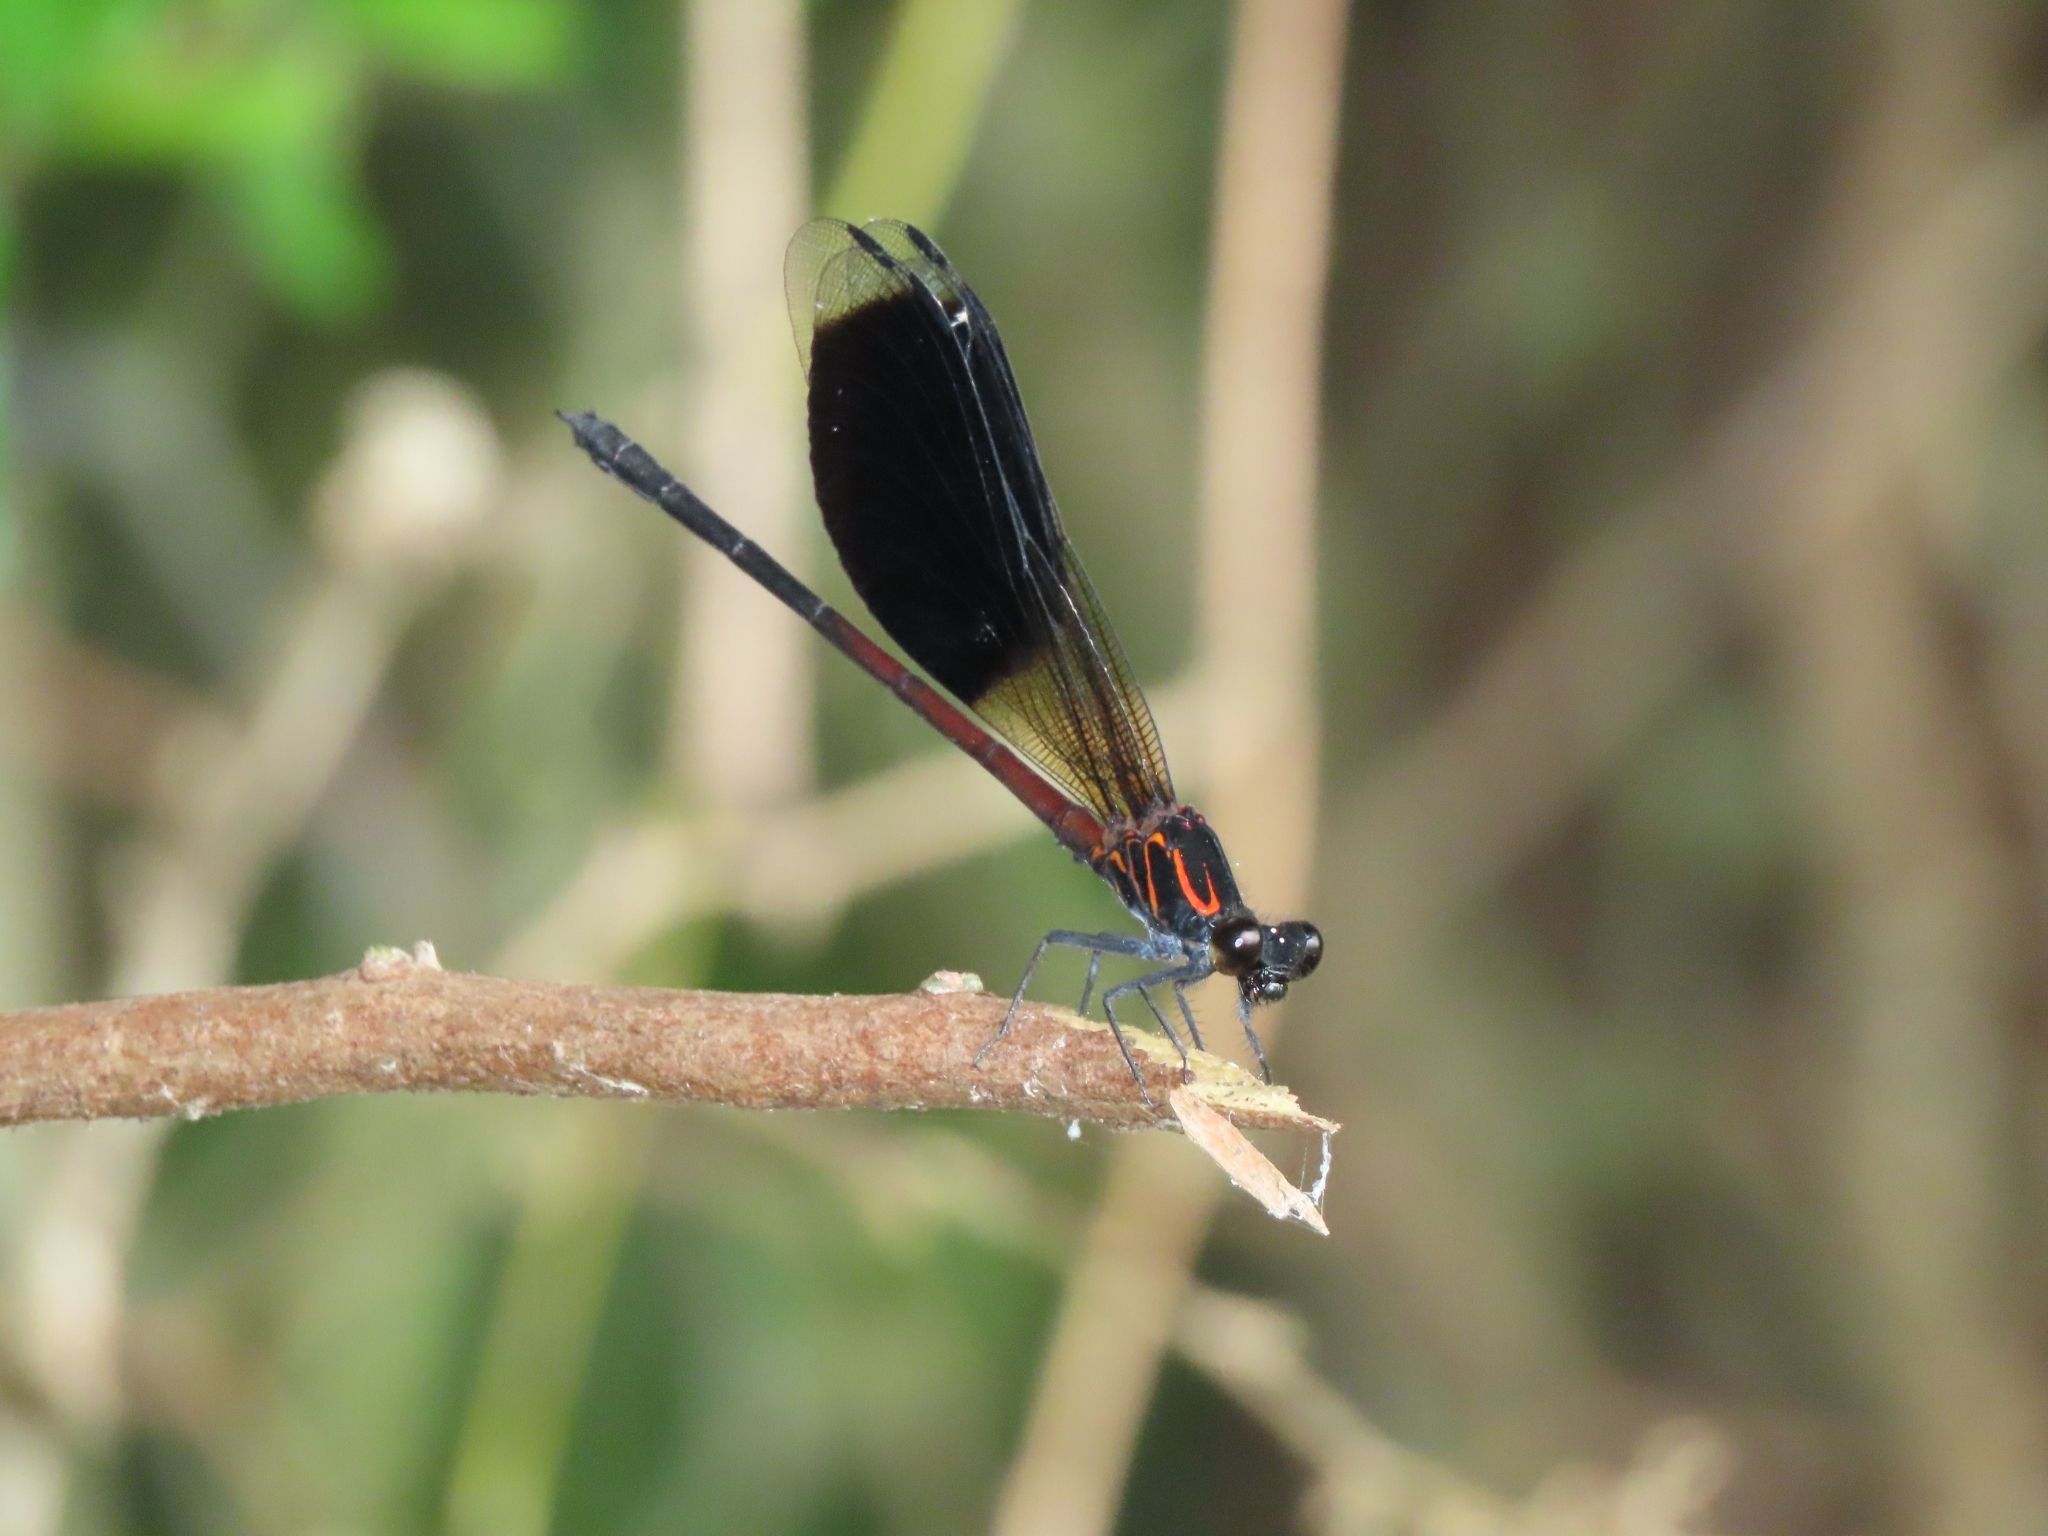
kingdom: Animalia
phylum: Arthropoda
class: Insecta
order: Odonata
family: Euphaeidae
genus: Euphaea
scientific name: Euphaea formosa
